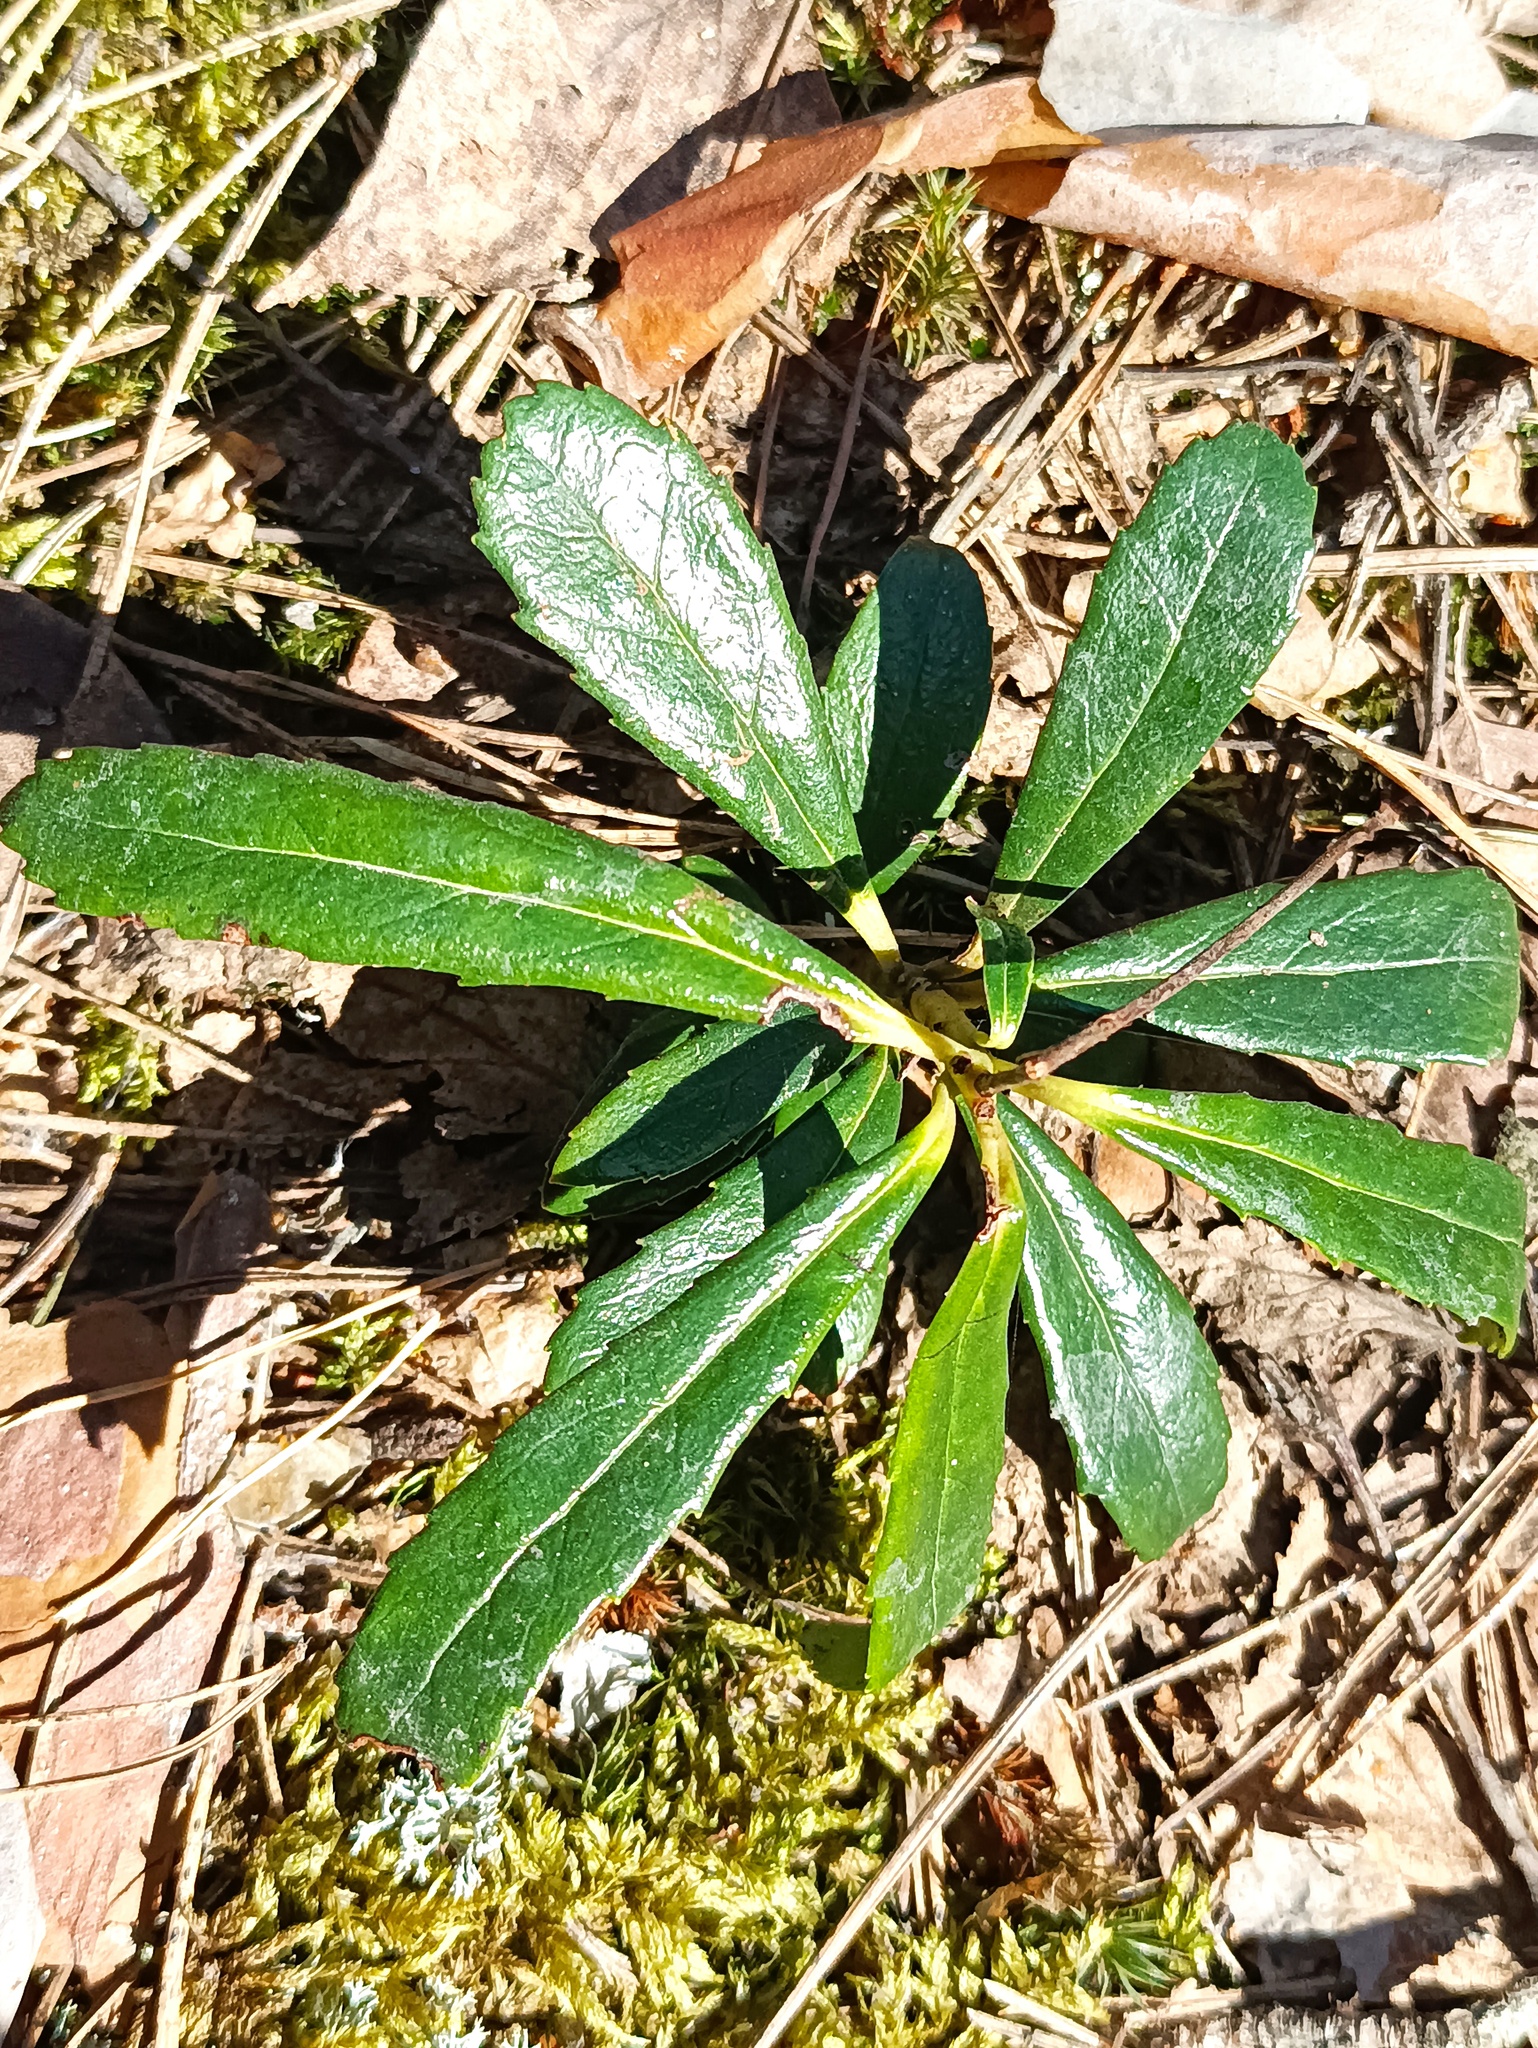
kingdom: Plantae
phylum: Tracheophyta
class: Magnoliopsida
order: Ericales
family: Ericaceae
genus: Chimaphila
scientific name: Chimaphila umbellata
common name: Pipsissewa
